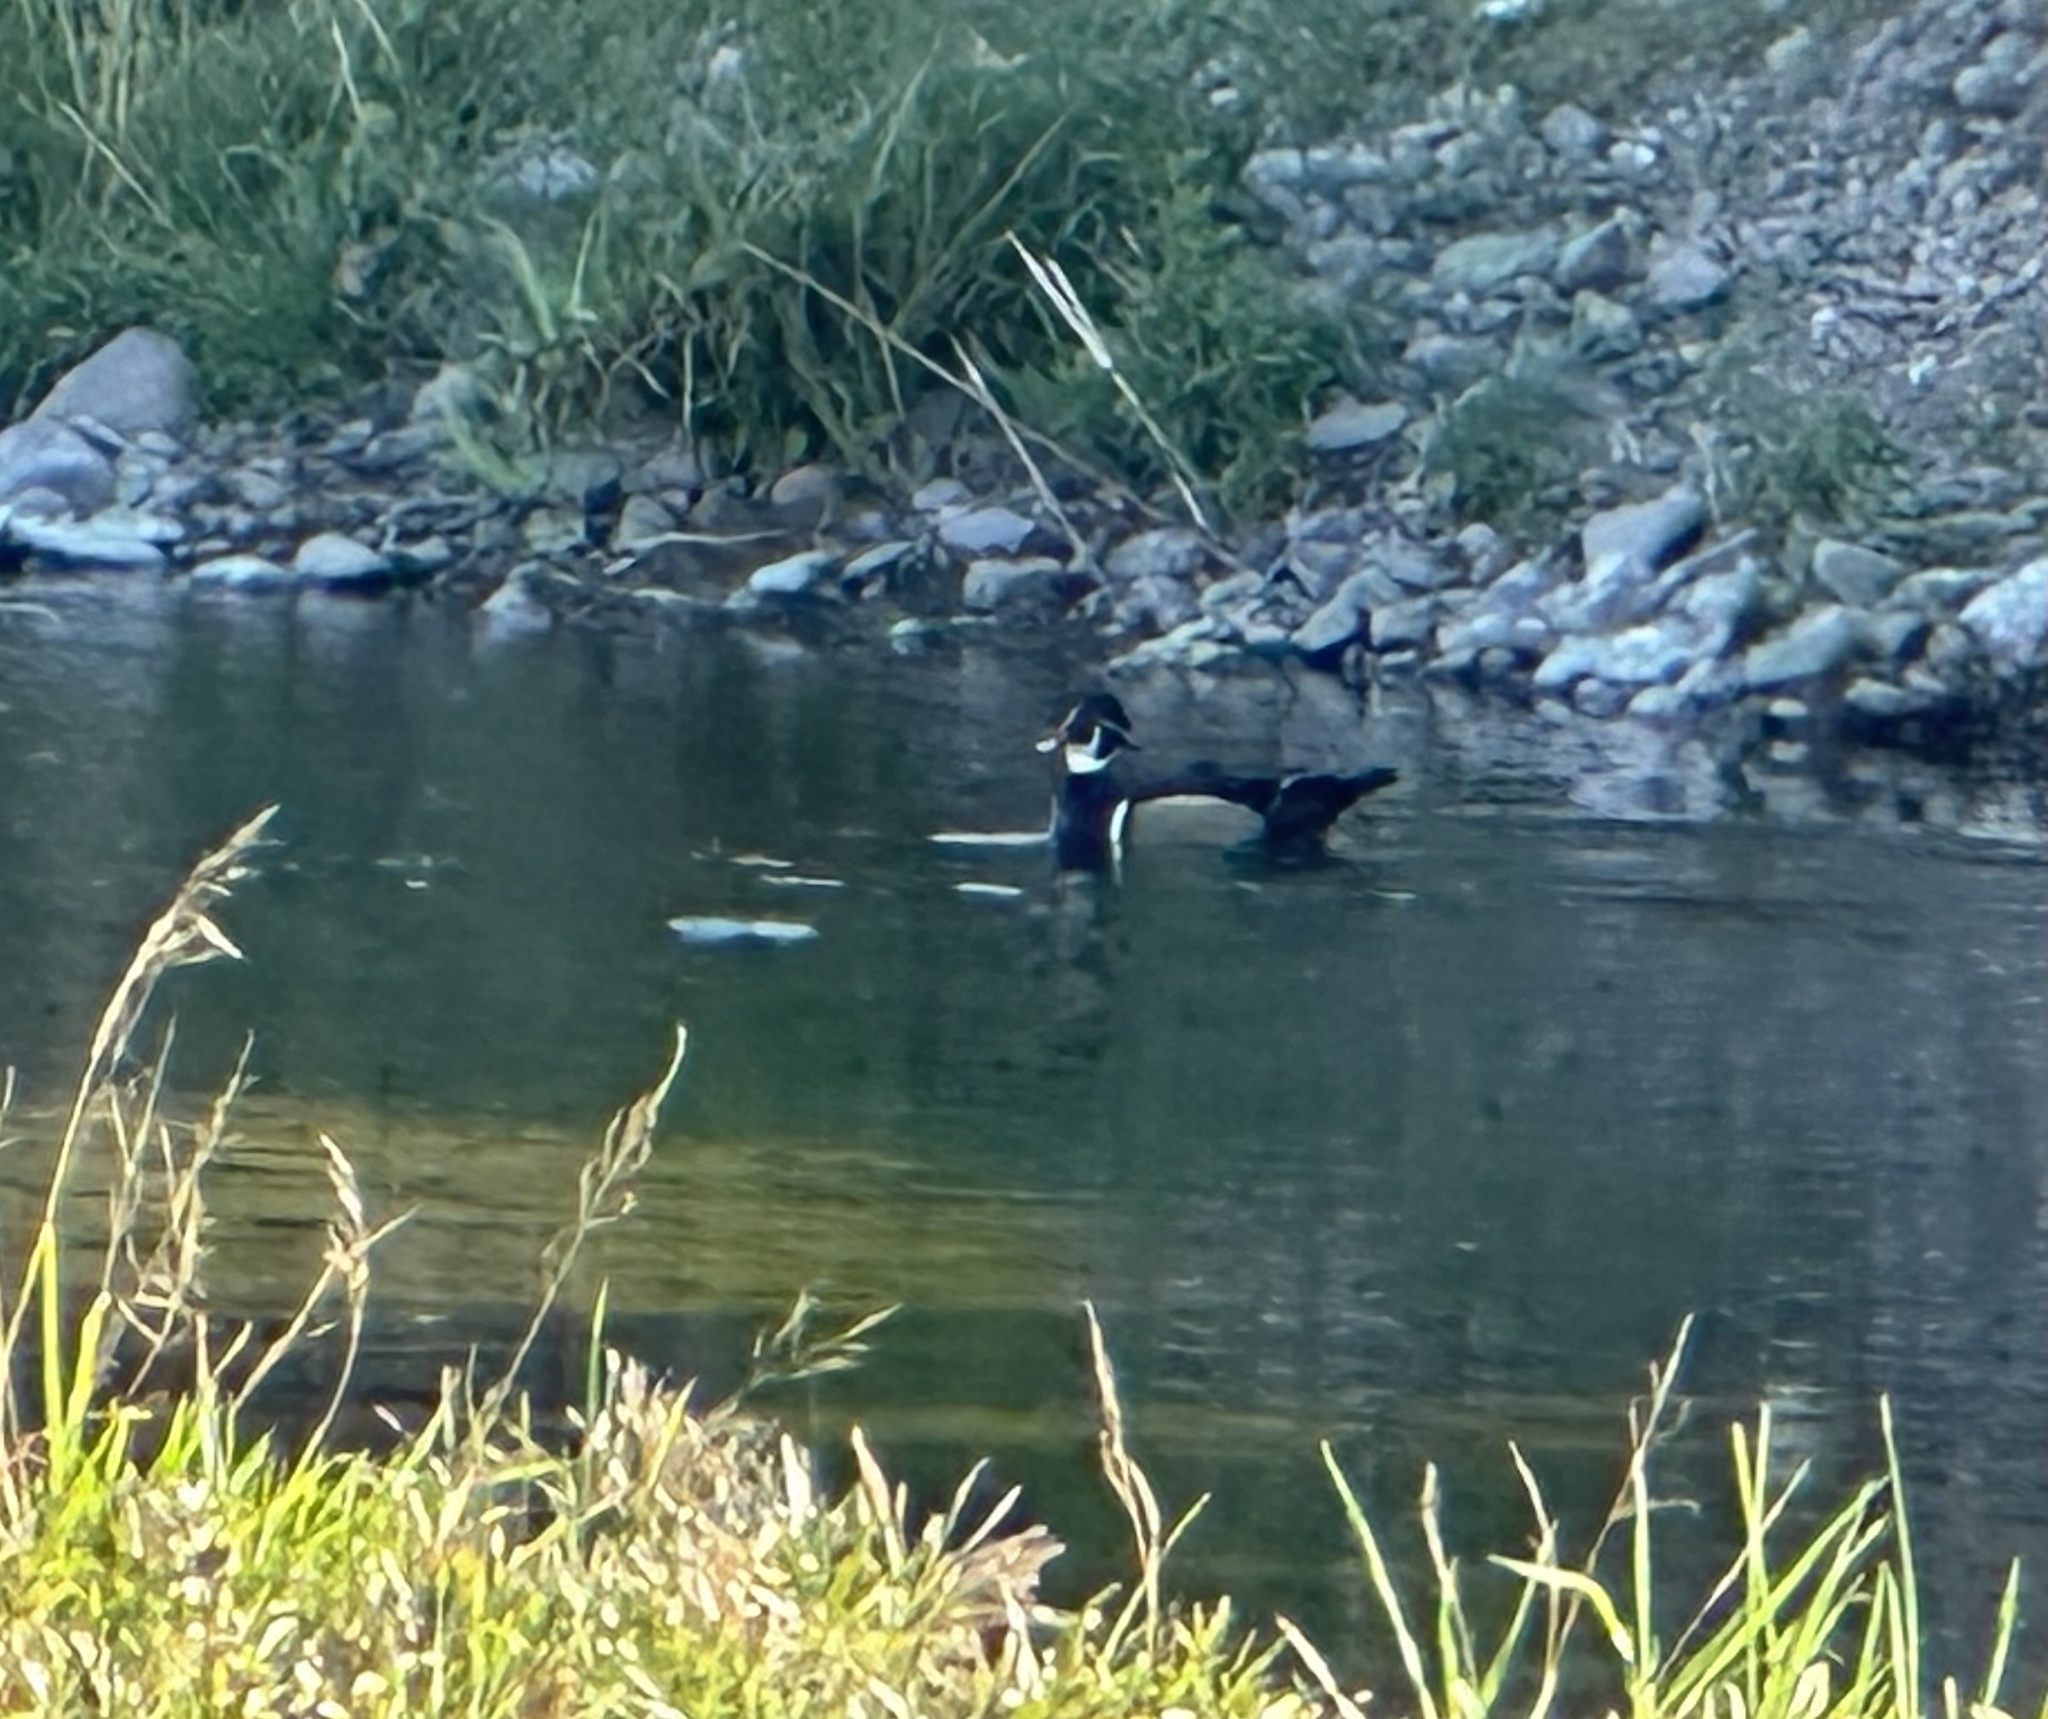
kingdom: Animalia
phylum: Chordata
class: Aves
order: Anseriformes
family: Anatidae
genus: Aix
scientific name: Aix sponsa
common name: Wood duck
